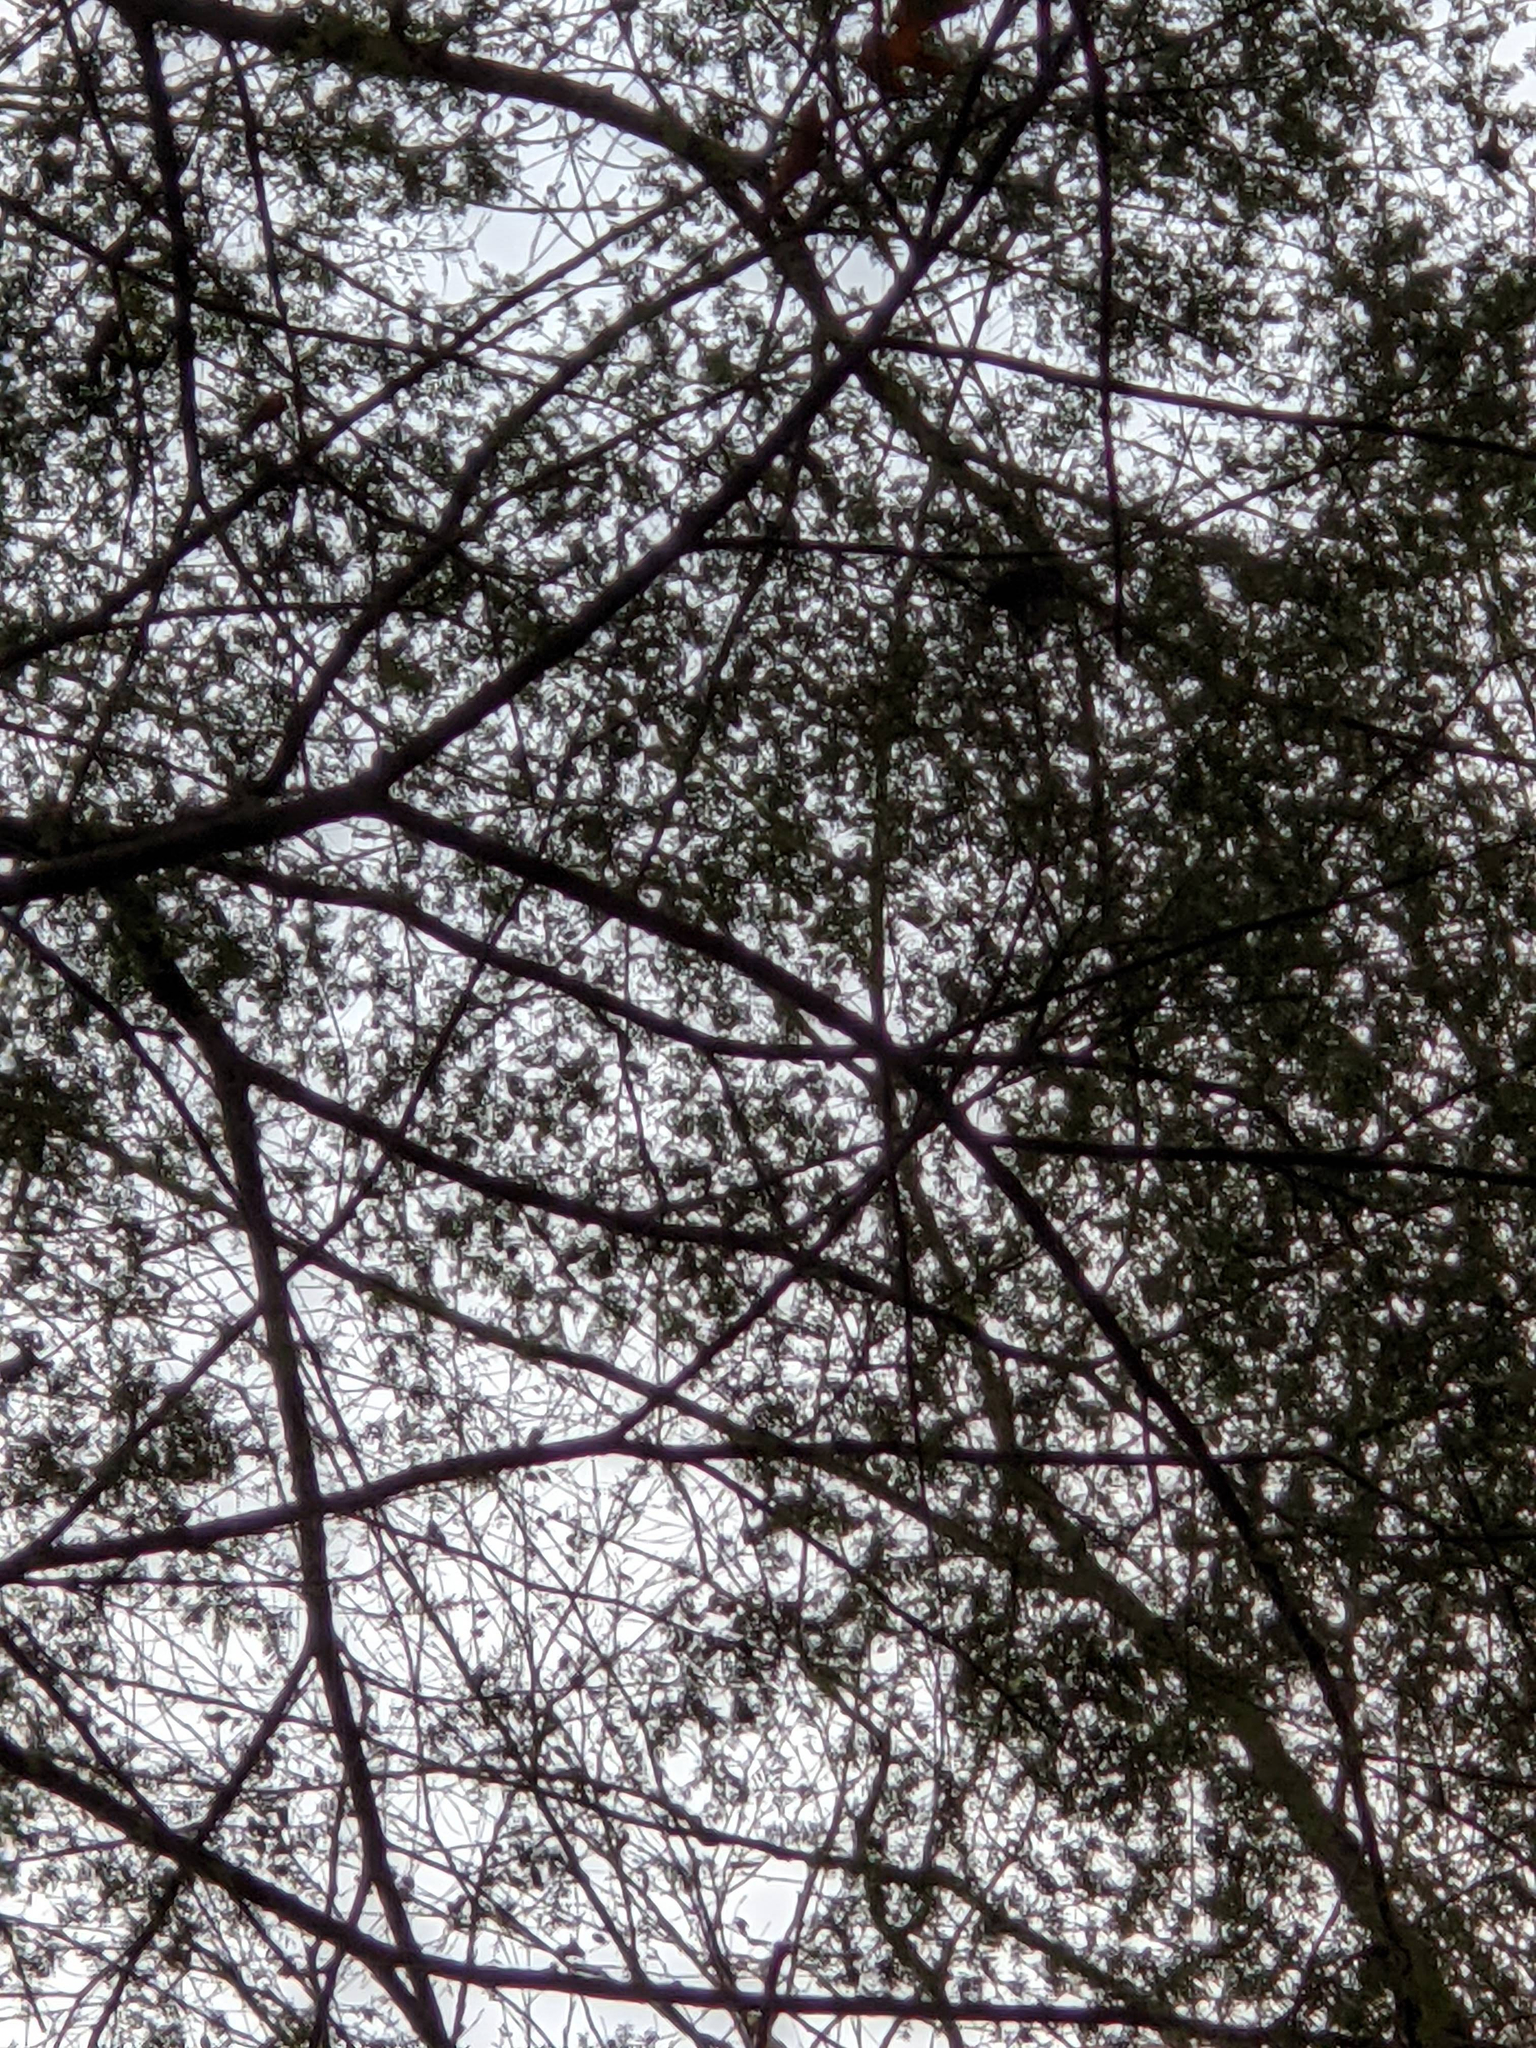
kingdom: Plantae
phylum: Tracheophyta
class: Pinopsida
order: Pinales
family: Pinaceae
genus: Tsuga
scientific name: Tsuga canadensis
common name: Eastern hemlock
